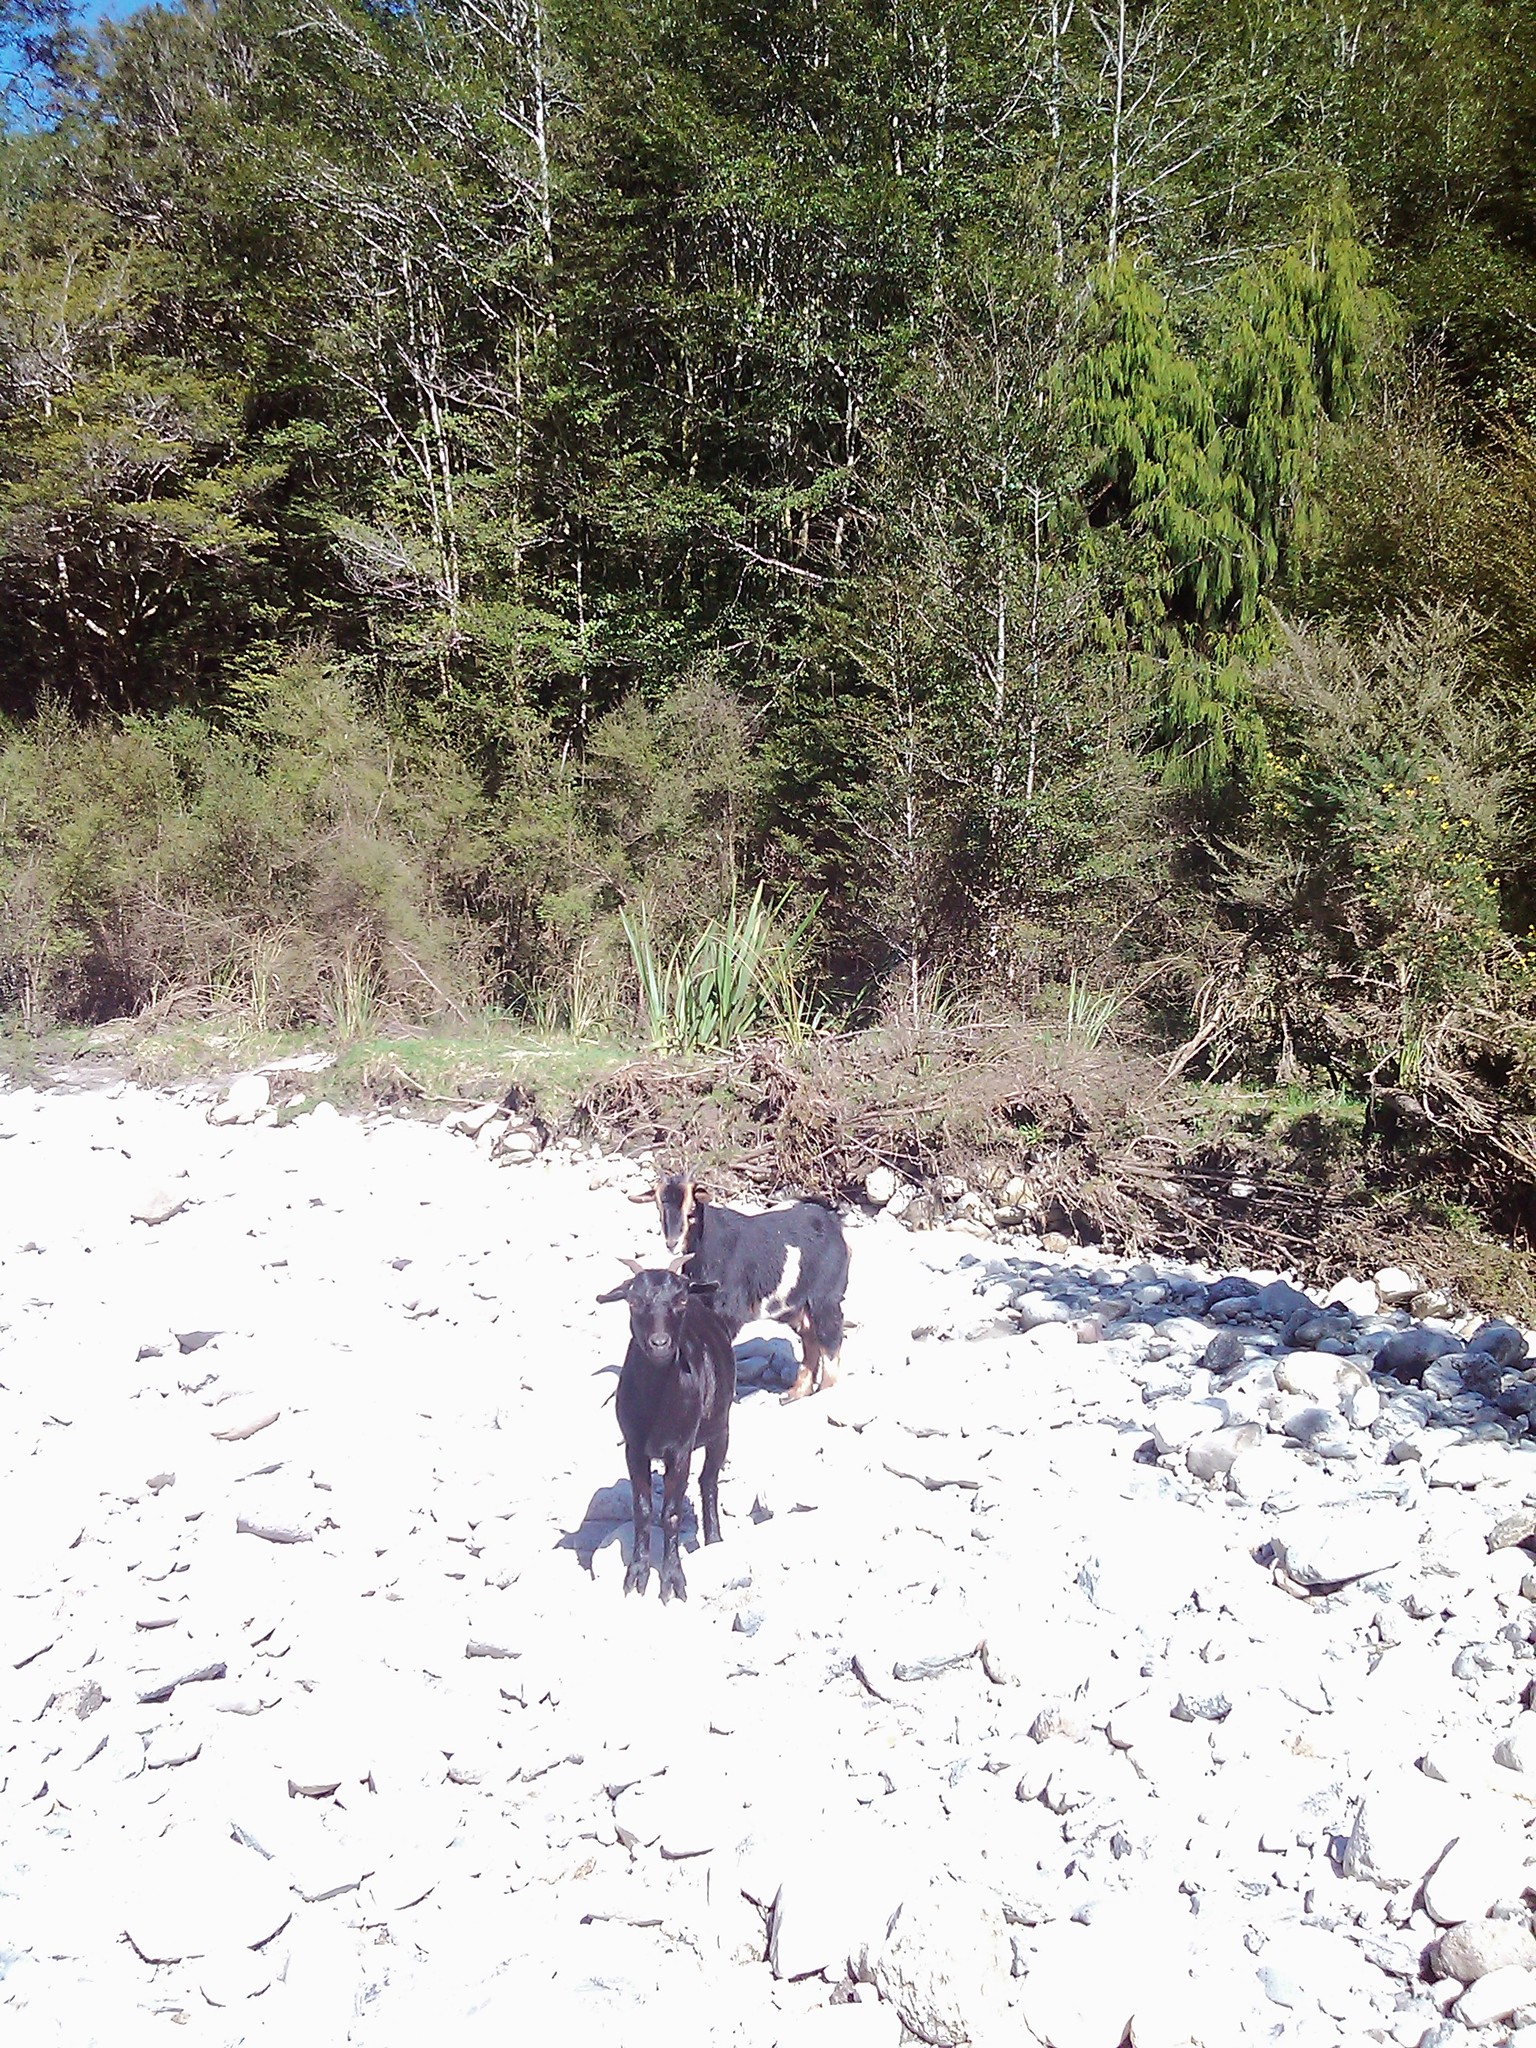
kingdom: Animalia
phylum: Chordata
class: Mammalia
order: Artiodactyla
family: Bovidae
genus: Capra
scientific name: Capra hircus
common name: Domestic goat
